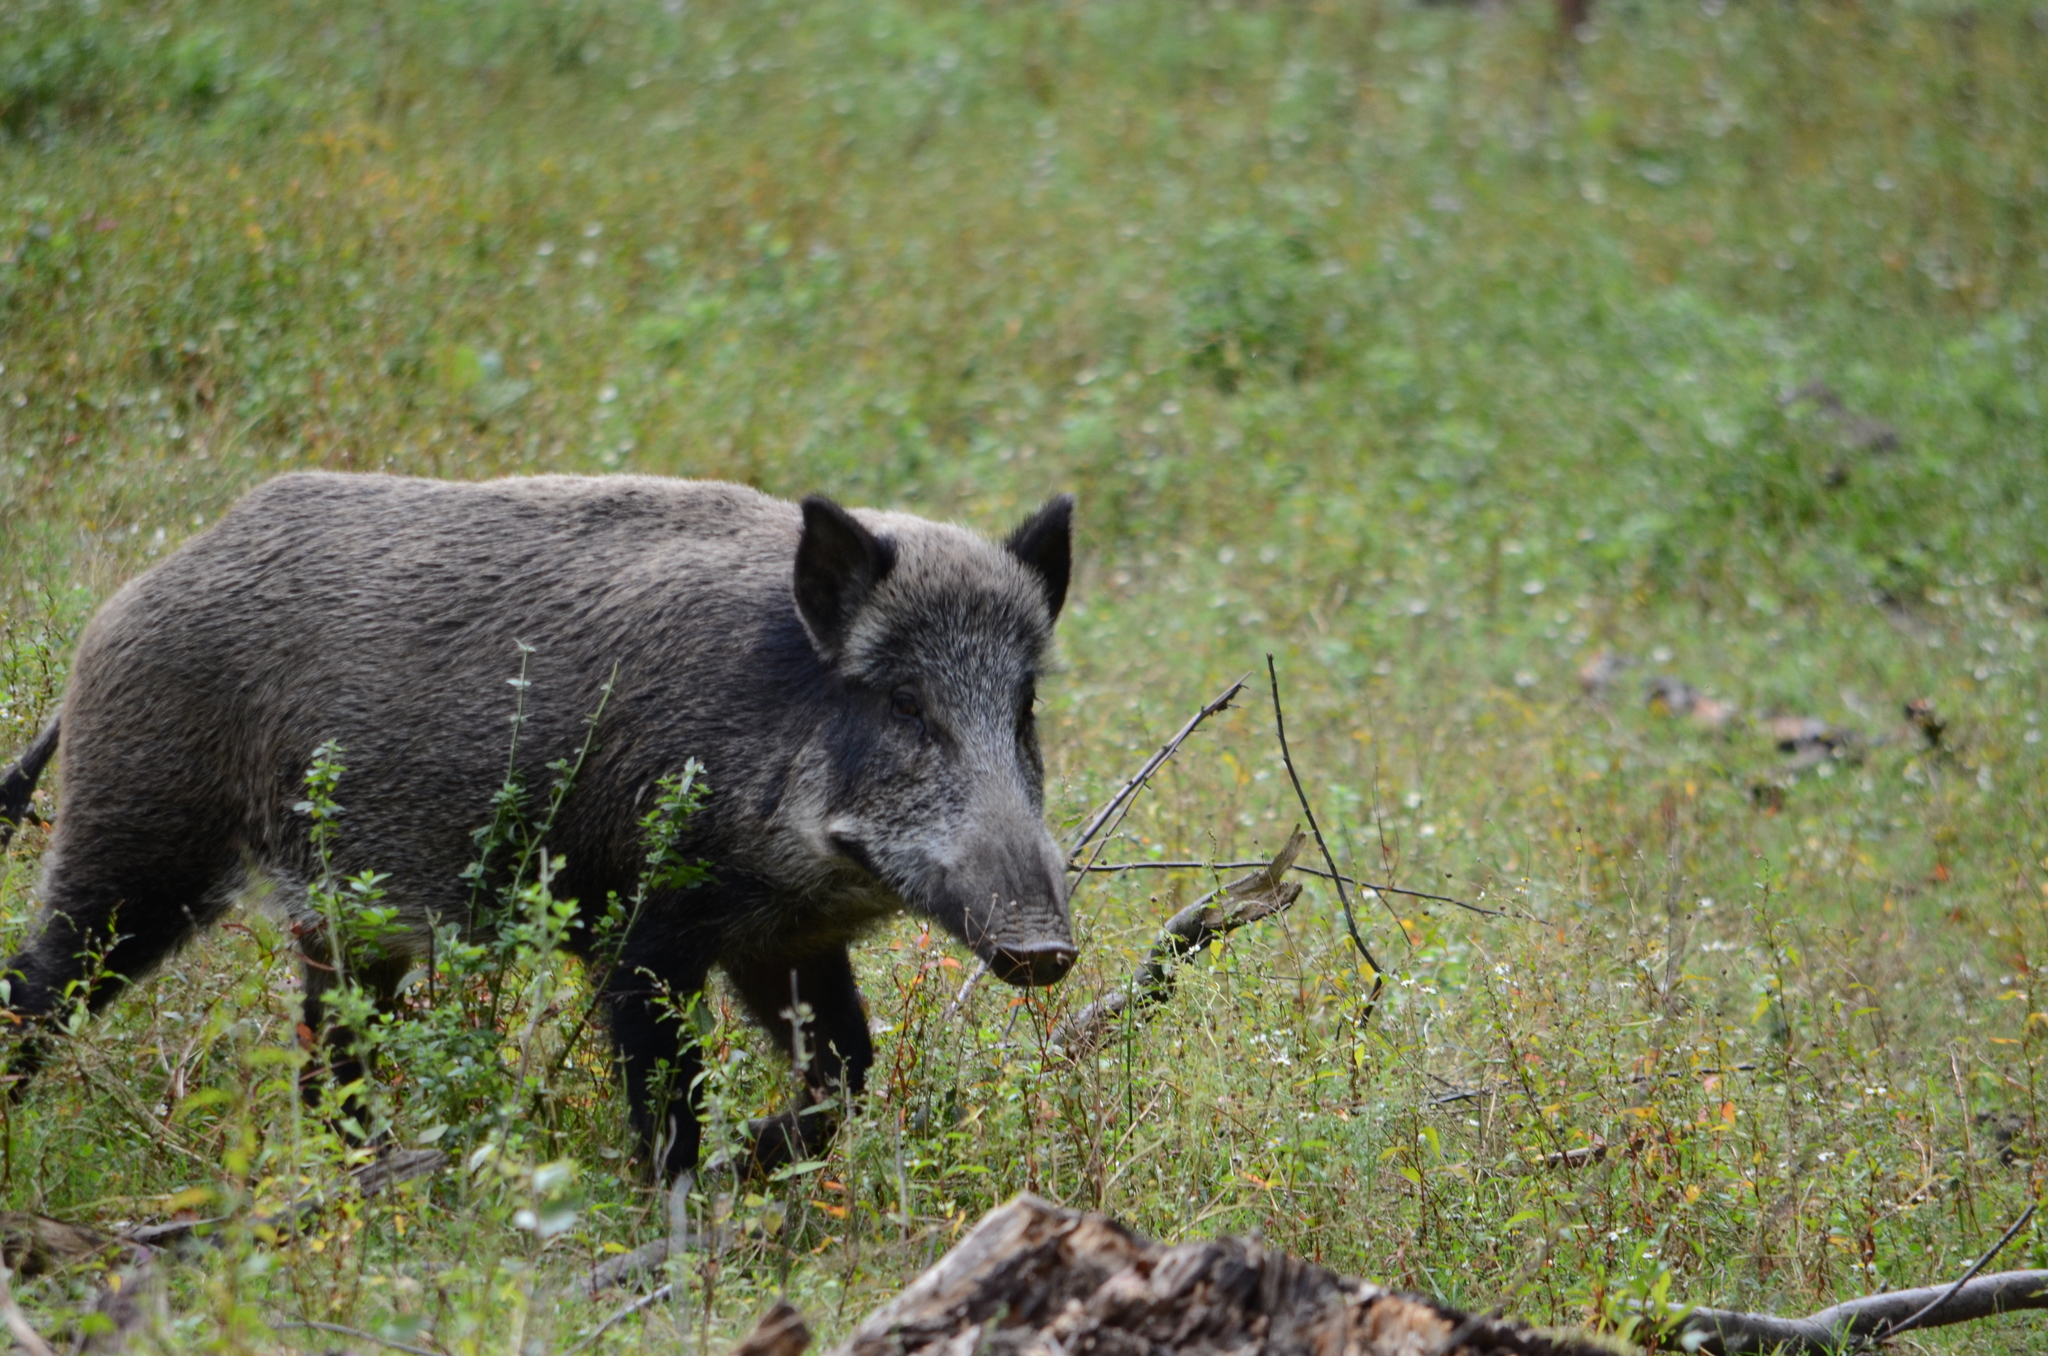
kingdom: Animalia
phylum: Chordata
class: Mammalia
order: Artiodactyla
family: Suidae
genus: Sus
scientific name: Sus scrofa
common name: Wild boar
